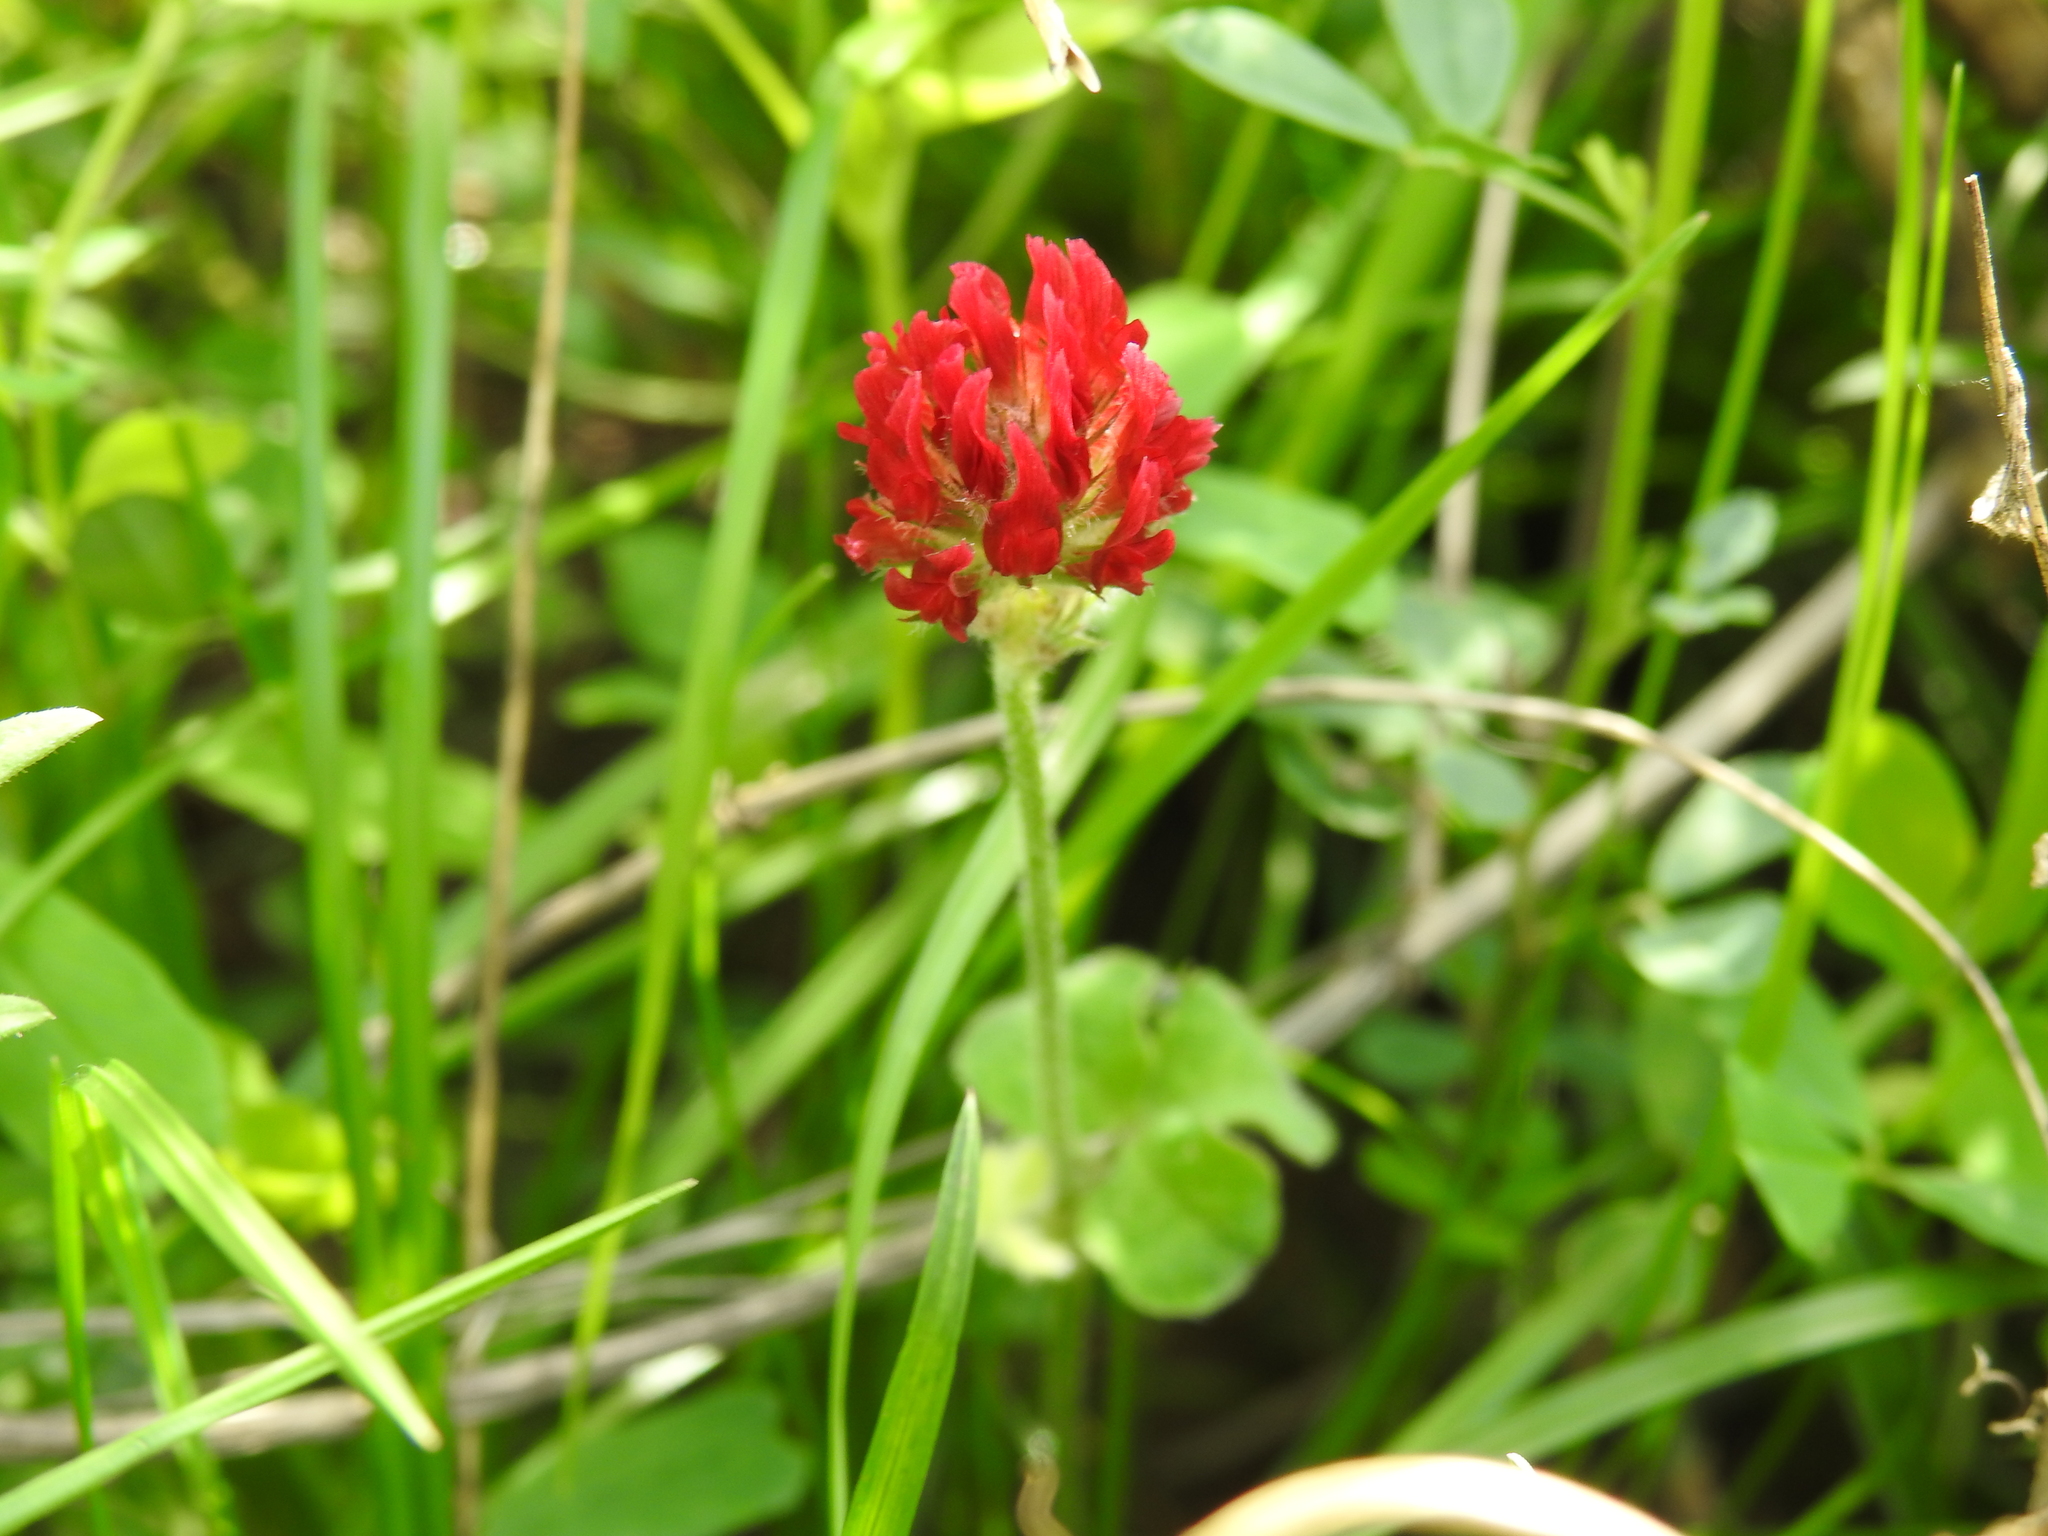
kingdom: Plantae
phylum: Tracheophyta
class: Magnoliopsida
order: Fabales
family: Fabaceae
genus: Trifolium
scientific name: Trifolium incarnatum
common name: Crimson clover
